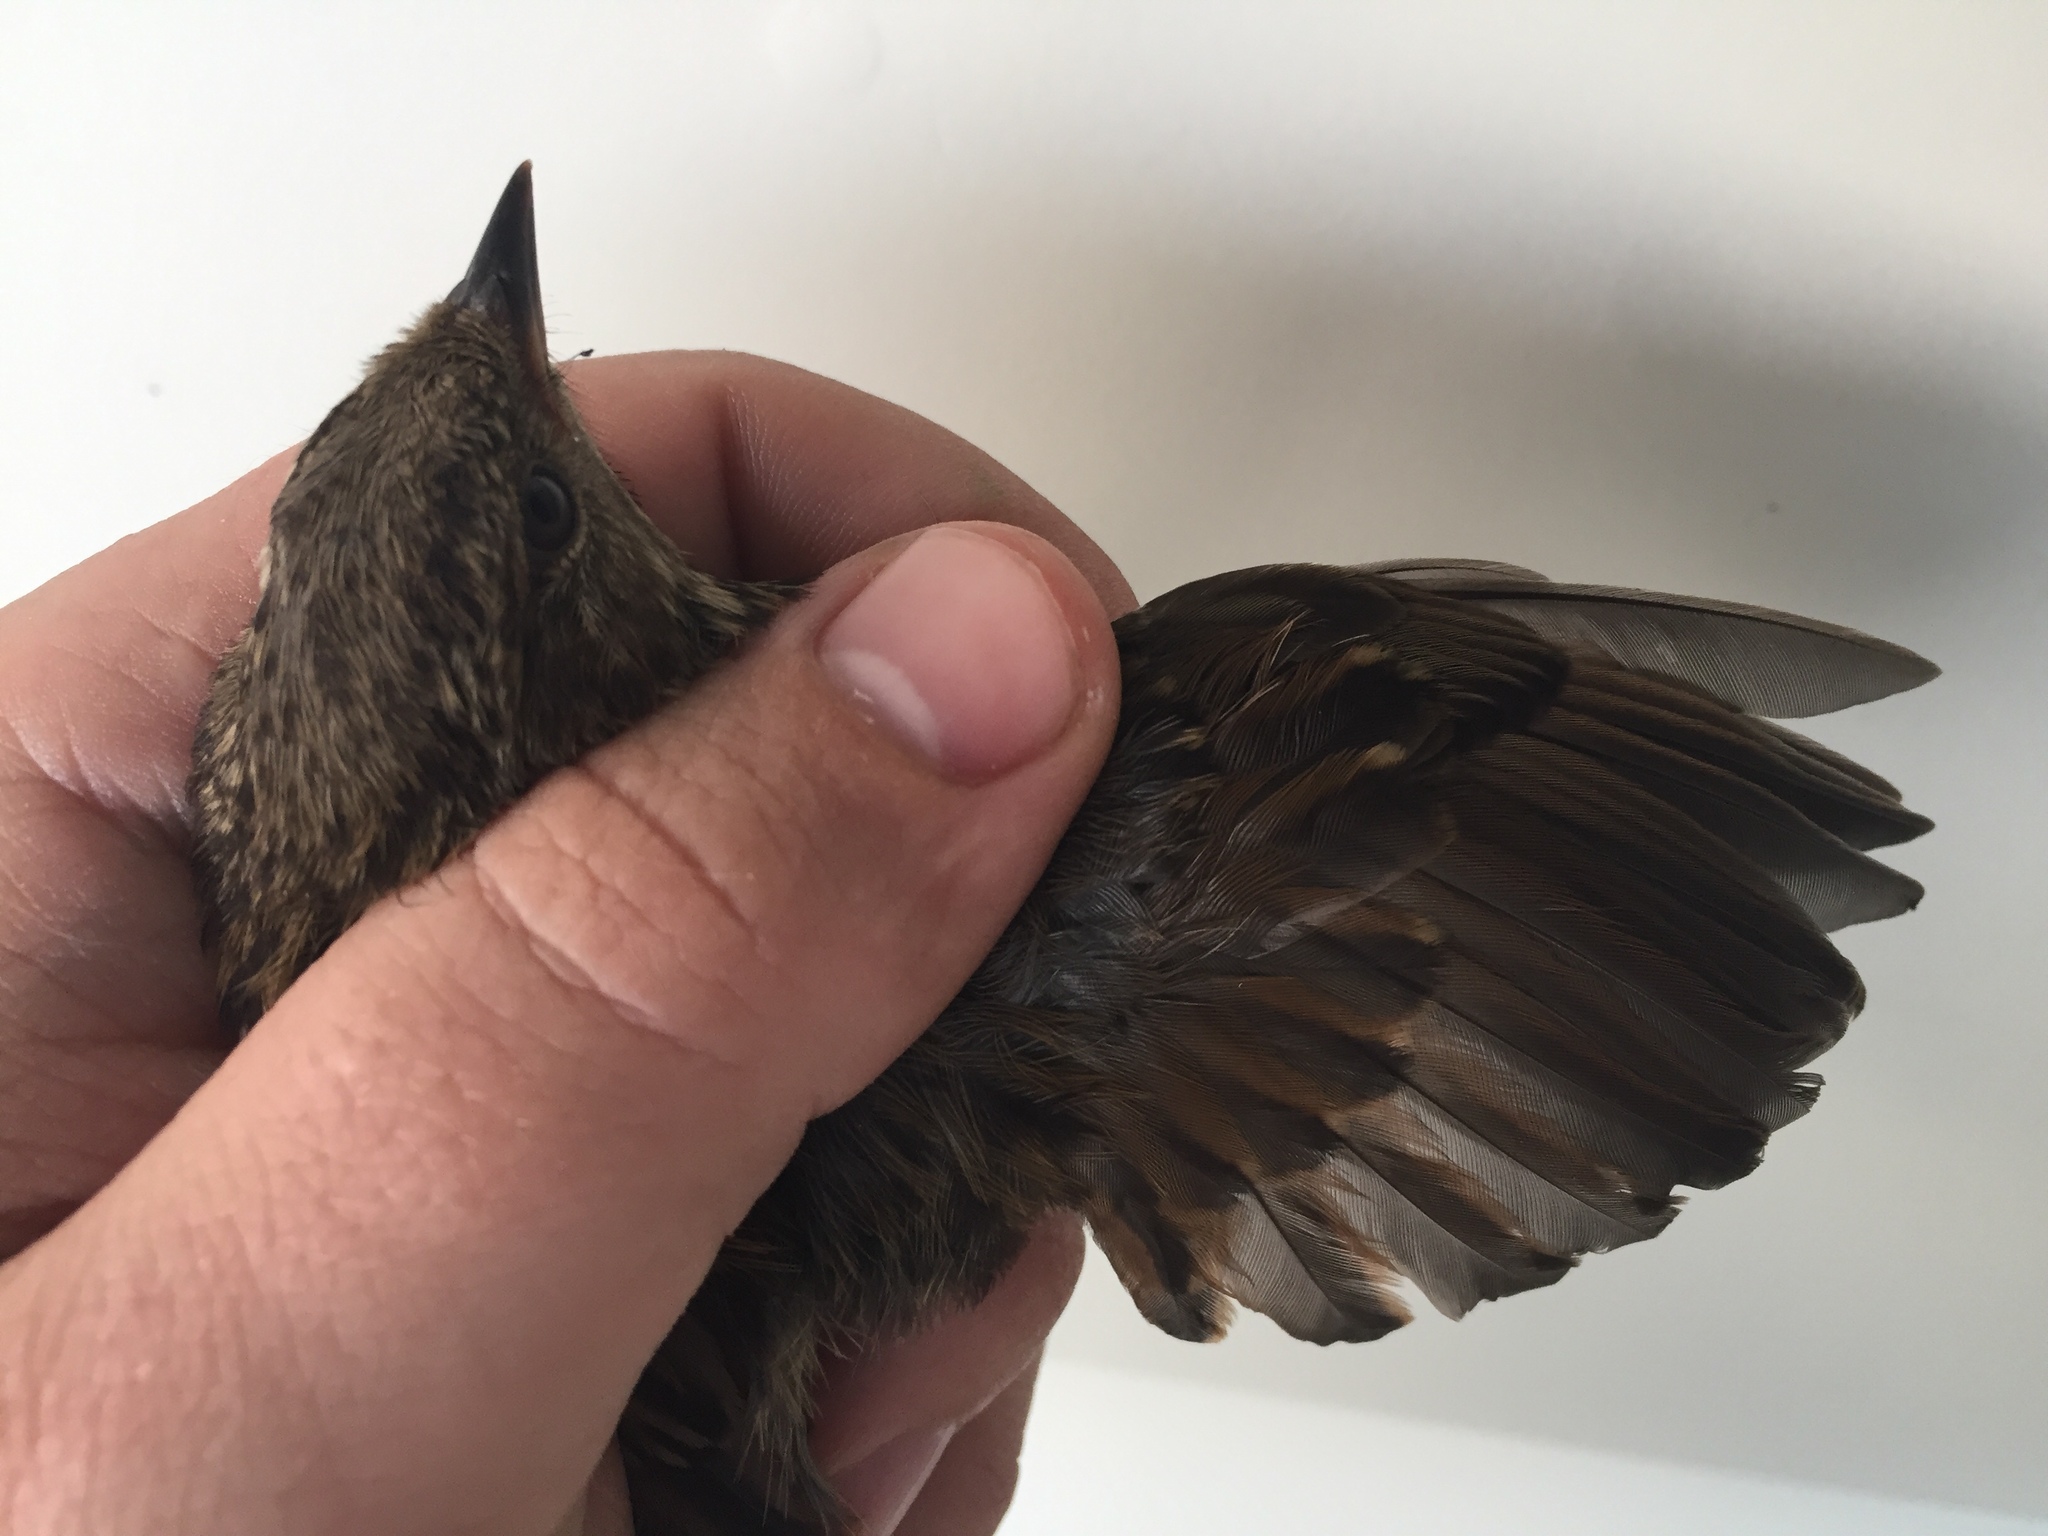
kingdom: Animalia
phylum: Chordata
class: Aves
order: Passeriformes
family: Prunellidae
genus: Prunella
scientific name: Prunella modularis
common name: Dunnock
